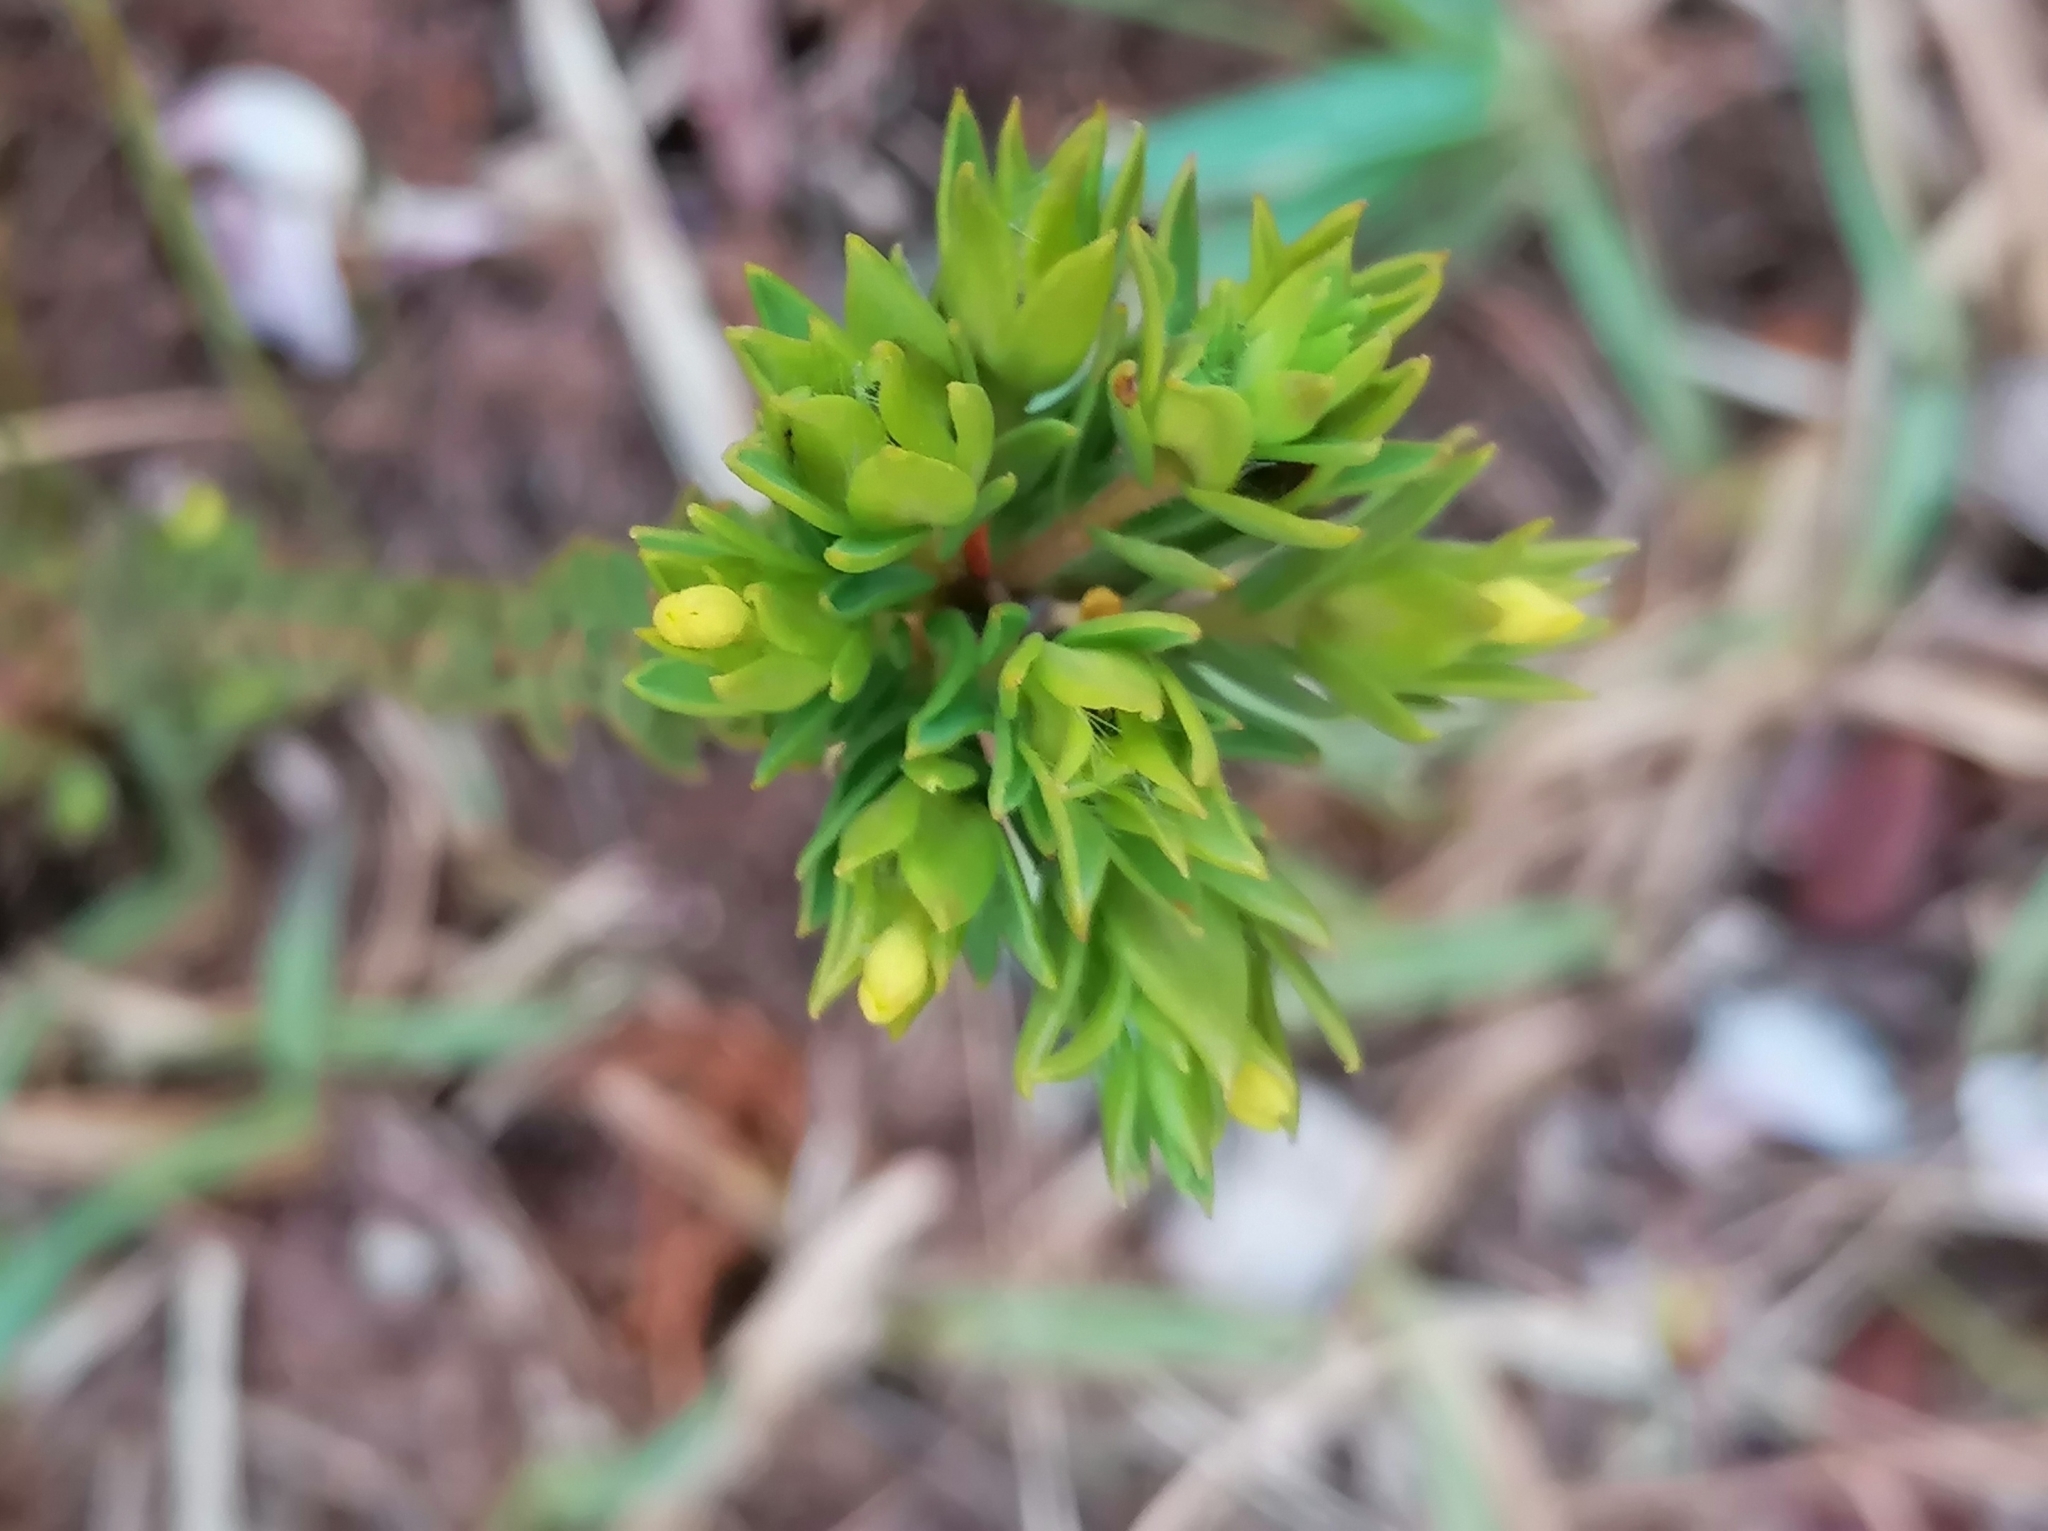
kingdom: Plantae
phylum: Tracheophyta
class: Magnoliopsida
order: Malvales
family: Thymelaeaceae
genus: Gnidia
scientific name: Gnidia juniperifolia
